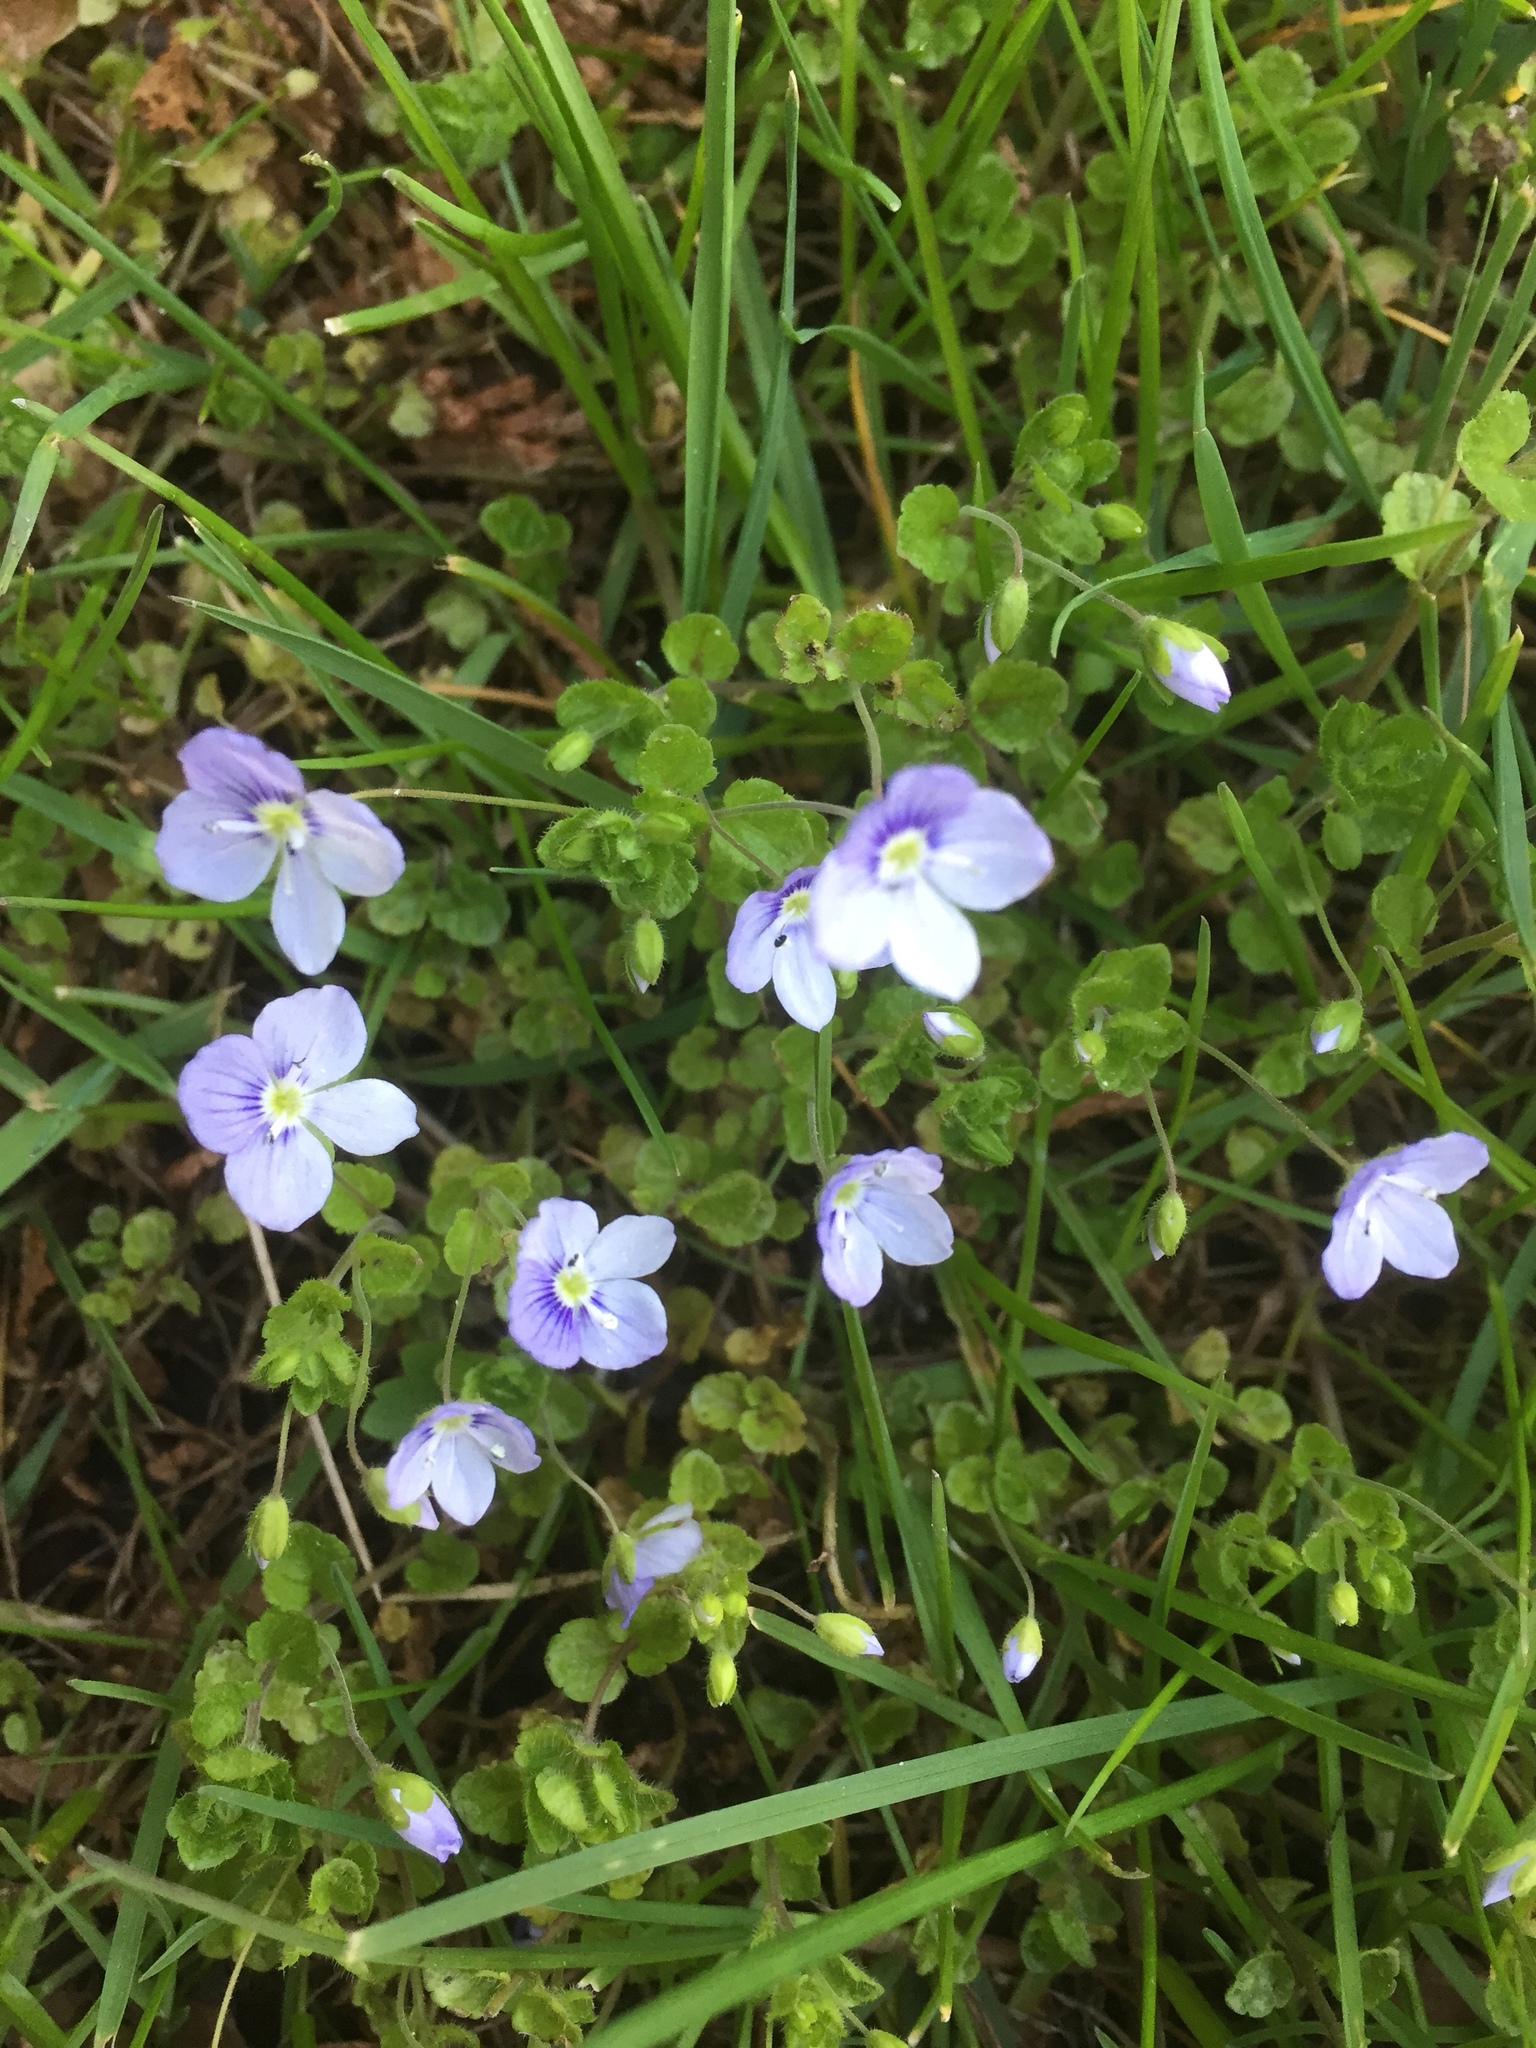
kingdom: Plantae
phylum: Tracheophyta
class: Magnoliopsida
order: Lamiales
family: Plantaginaceae
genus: Veronica
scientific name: Veronica filiformis
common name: Slender speedwell
